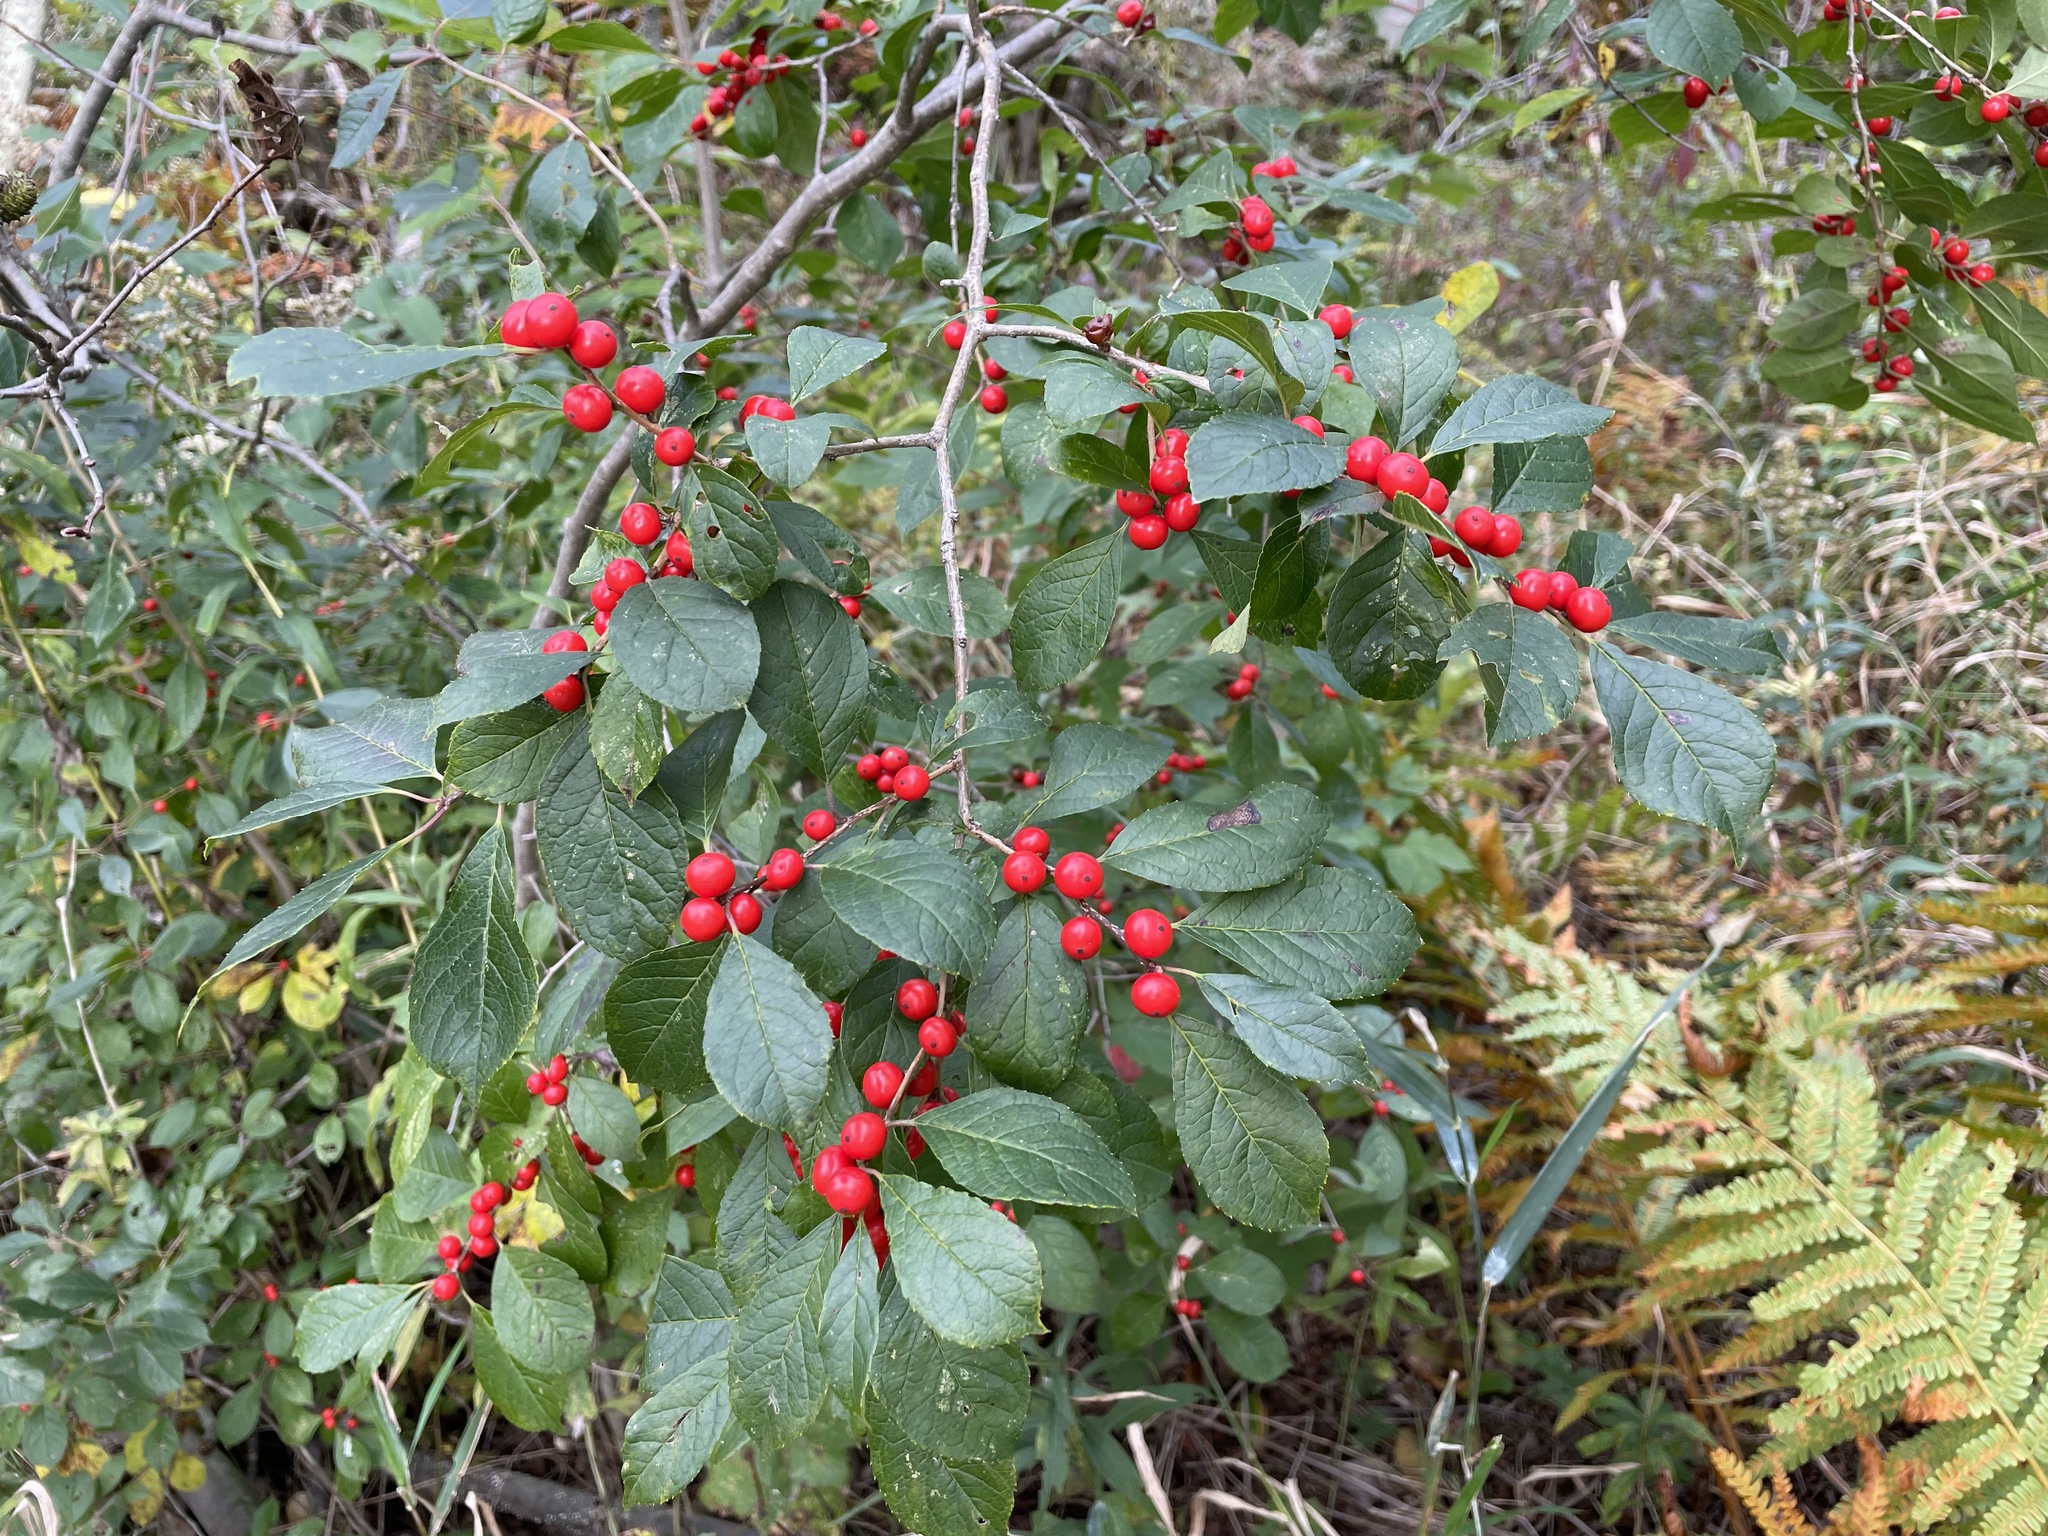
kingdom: Plantae
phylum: Tracheophyta
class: Magnoliopsida
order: Aquifoliales
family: Aquifoliaceae
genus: Ilex
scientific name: Ilex verticillata
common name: Virginia winterberry
